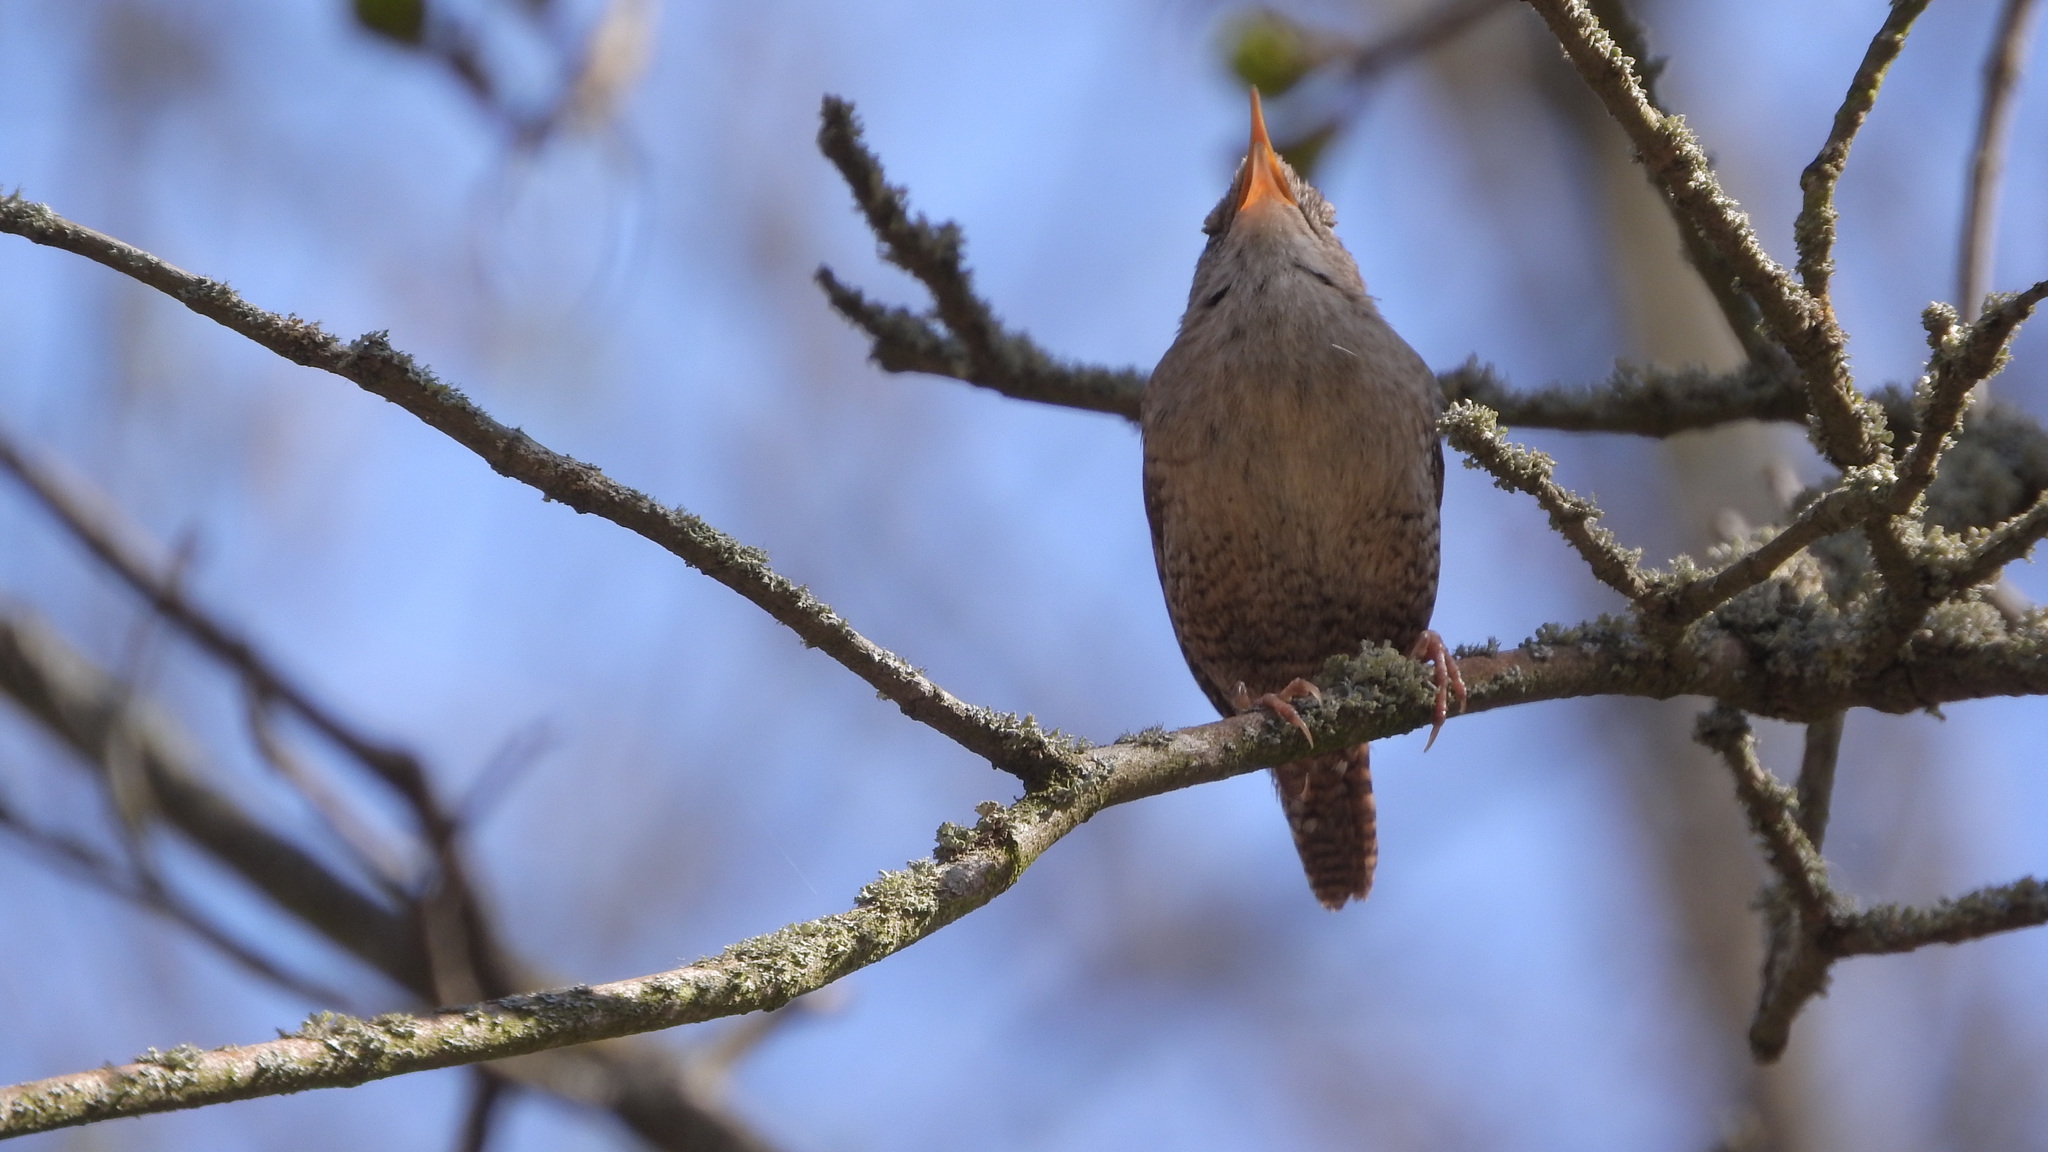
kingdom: Animalia
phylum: Chordata
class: Aves
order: Passeriformes
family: Troglodytidae
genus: Troglodytes
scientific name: Troglodytes troglodytes
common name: Eurasian wren
